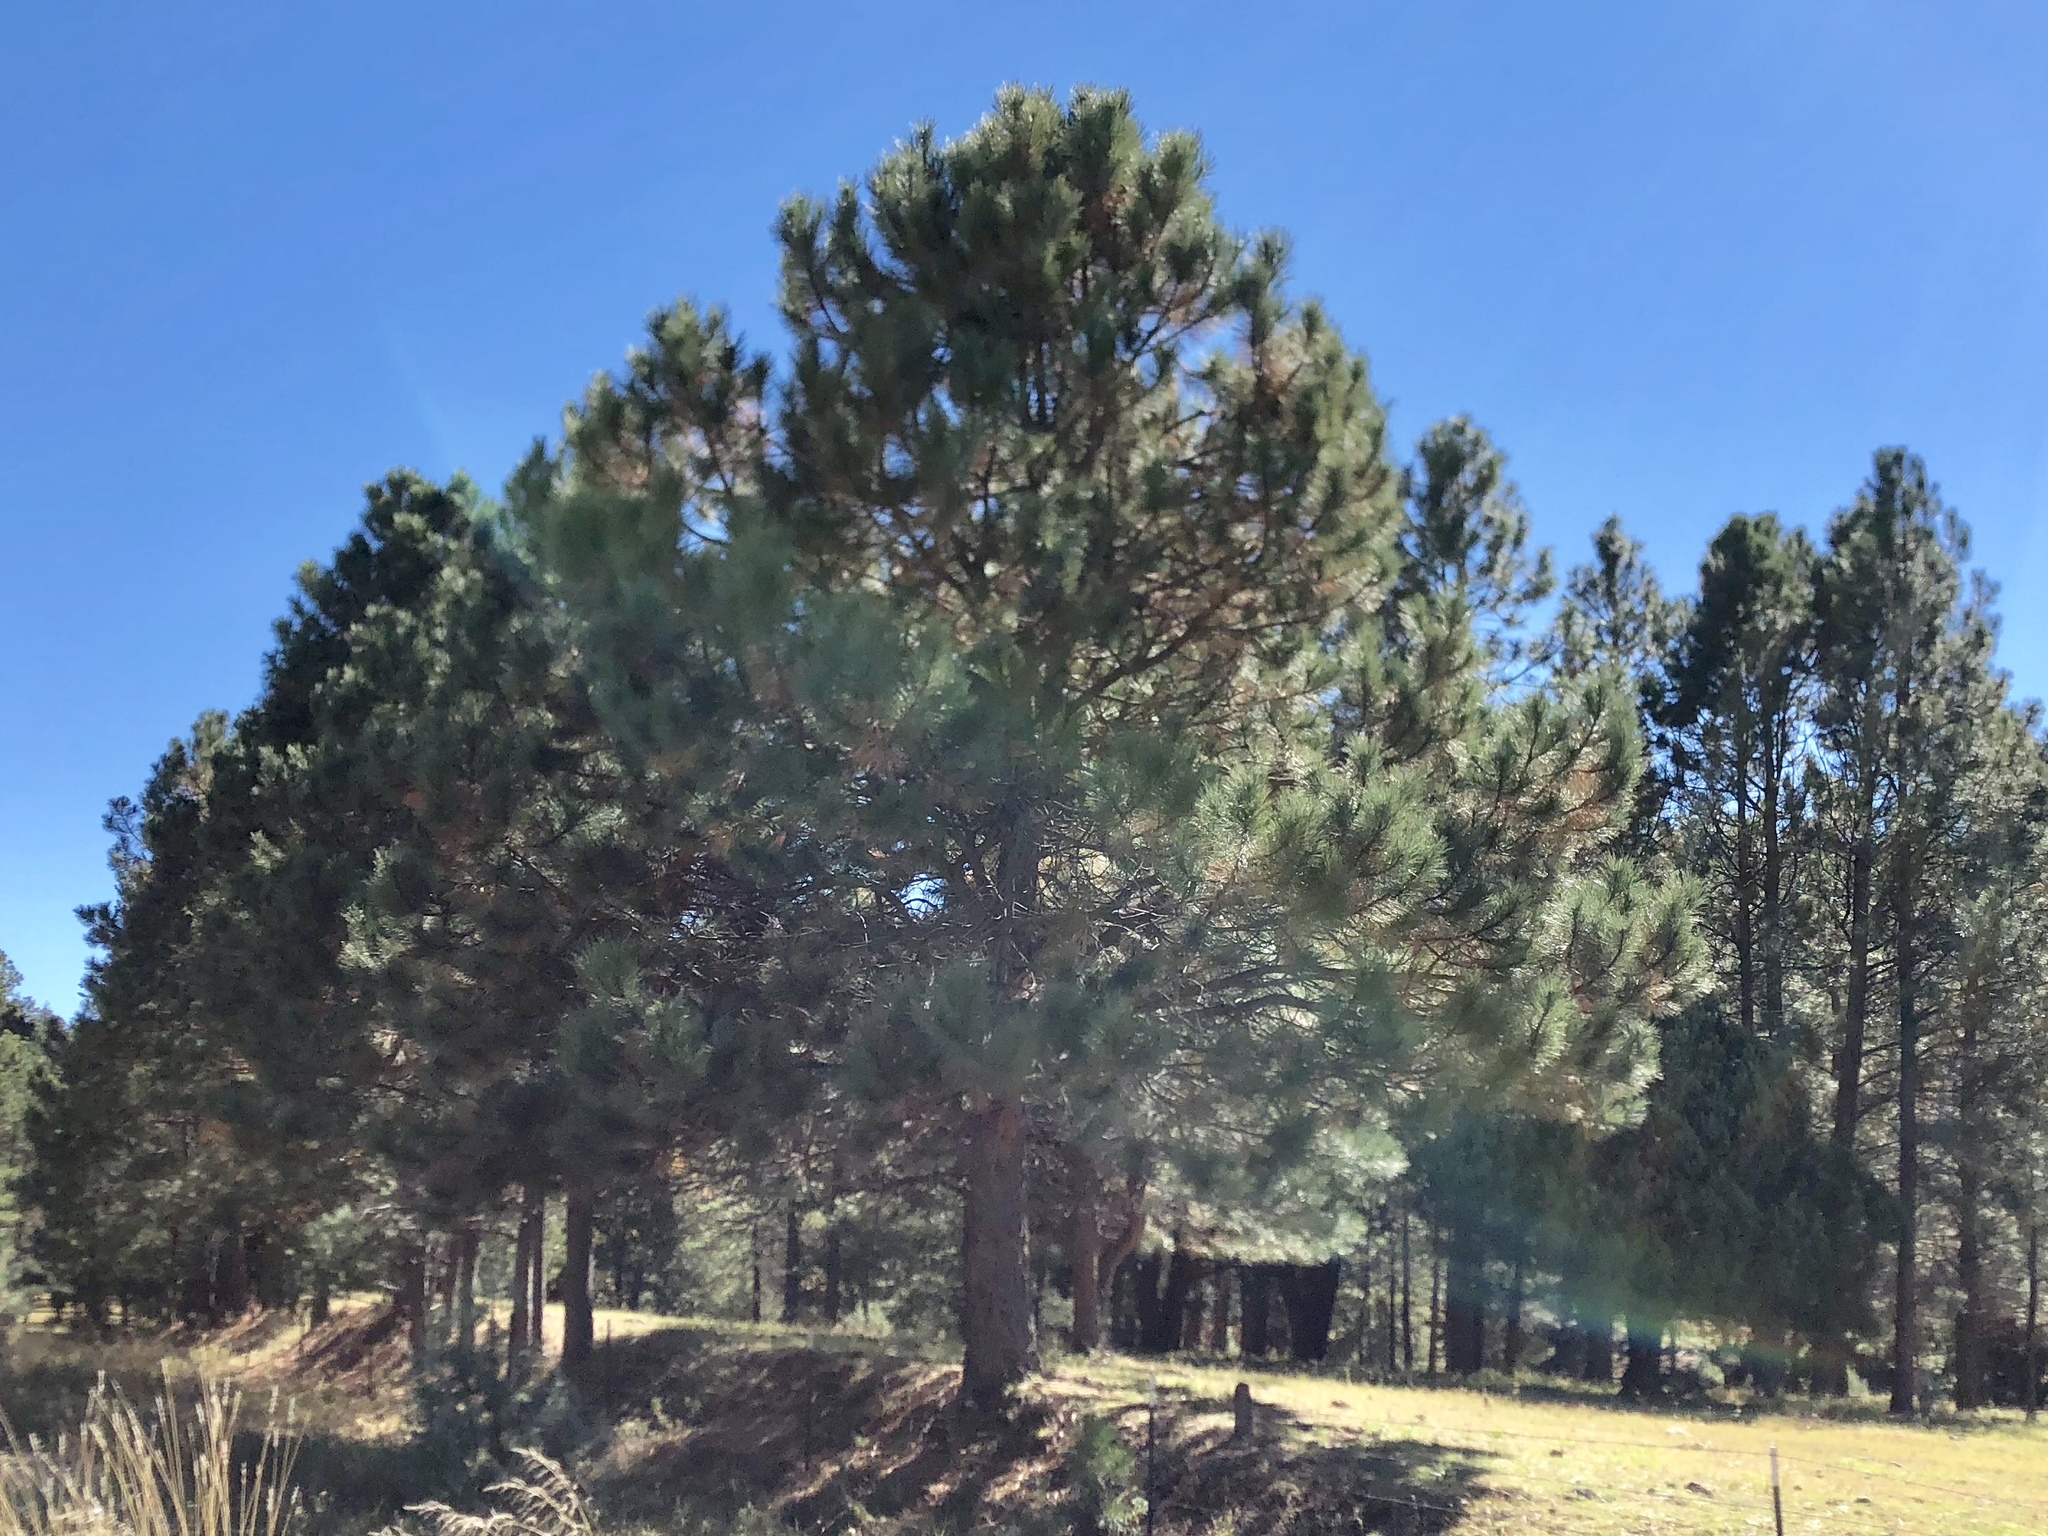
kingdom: Plantae
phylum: Tracheophyta
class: Pinopsida
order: Pinales
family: Pinaceae
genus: Pinus
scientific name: Pinus ponderosa
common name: Western yellow-pine
